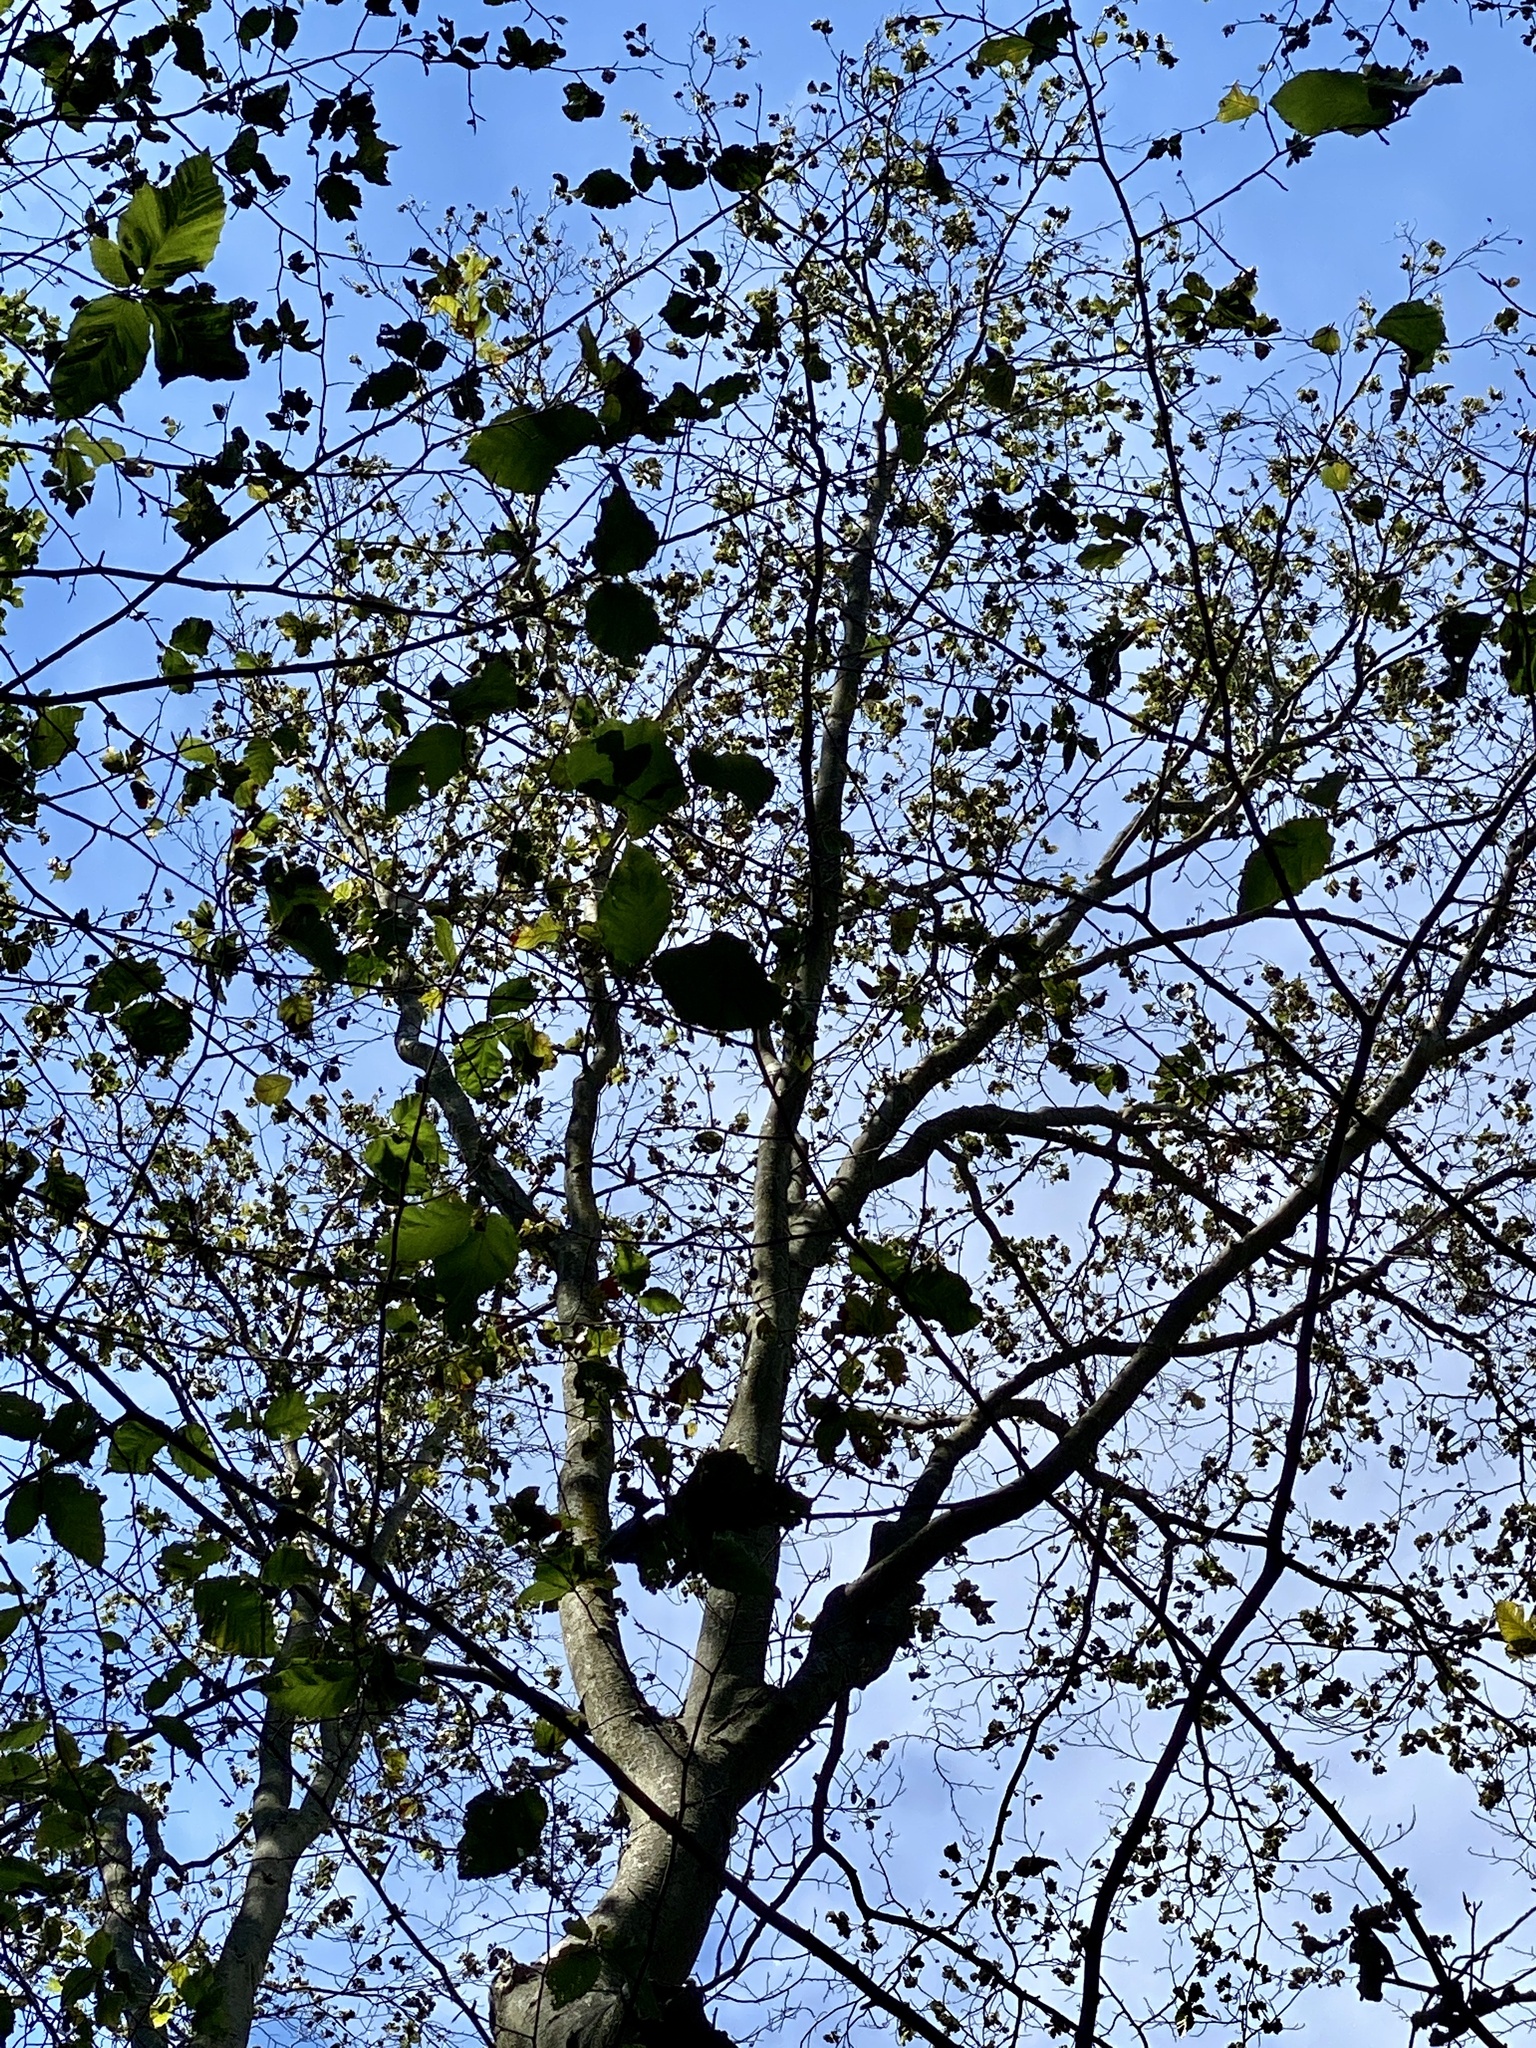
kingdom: Animalia
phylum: Nematoda
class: Chromadorea
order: Rhabditida
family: Anguinidae
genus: Litylenchus
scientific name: Litylenchus crenatae
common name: Beech leaf disease
